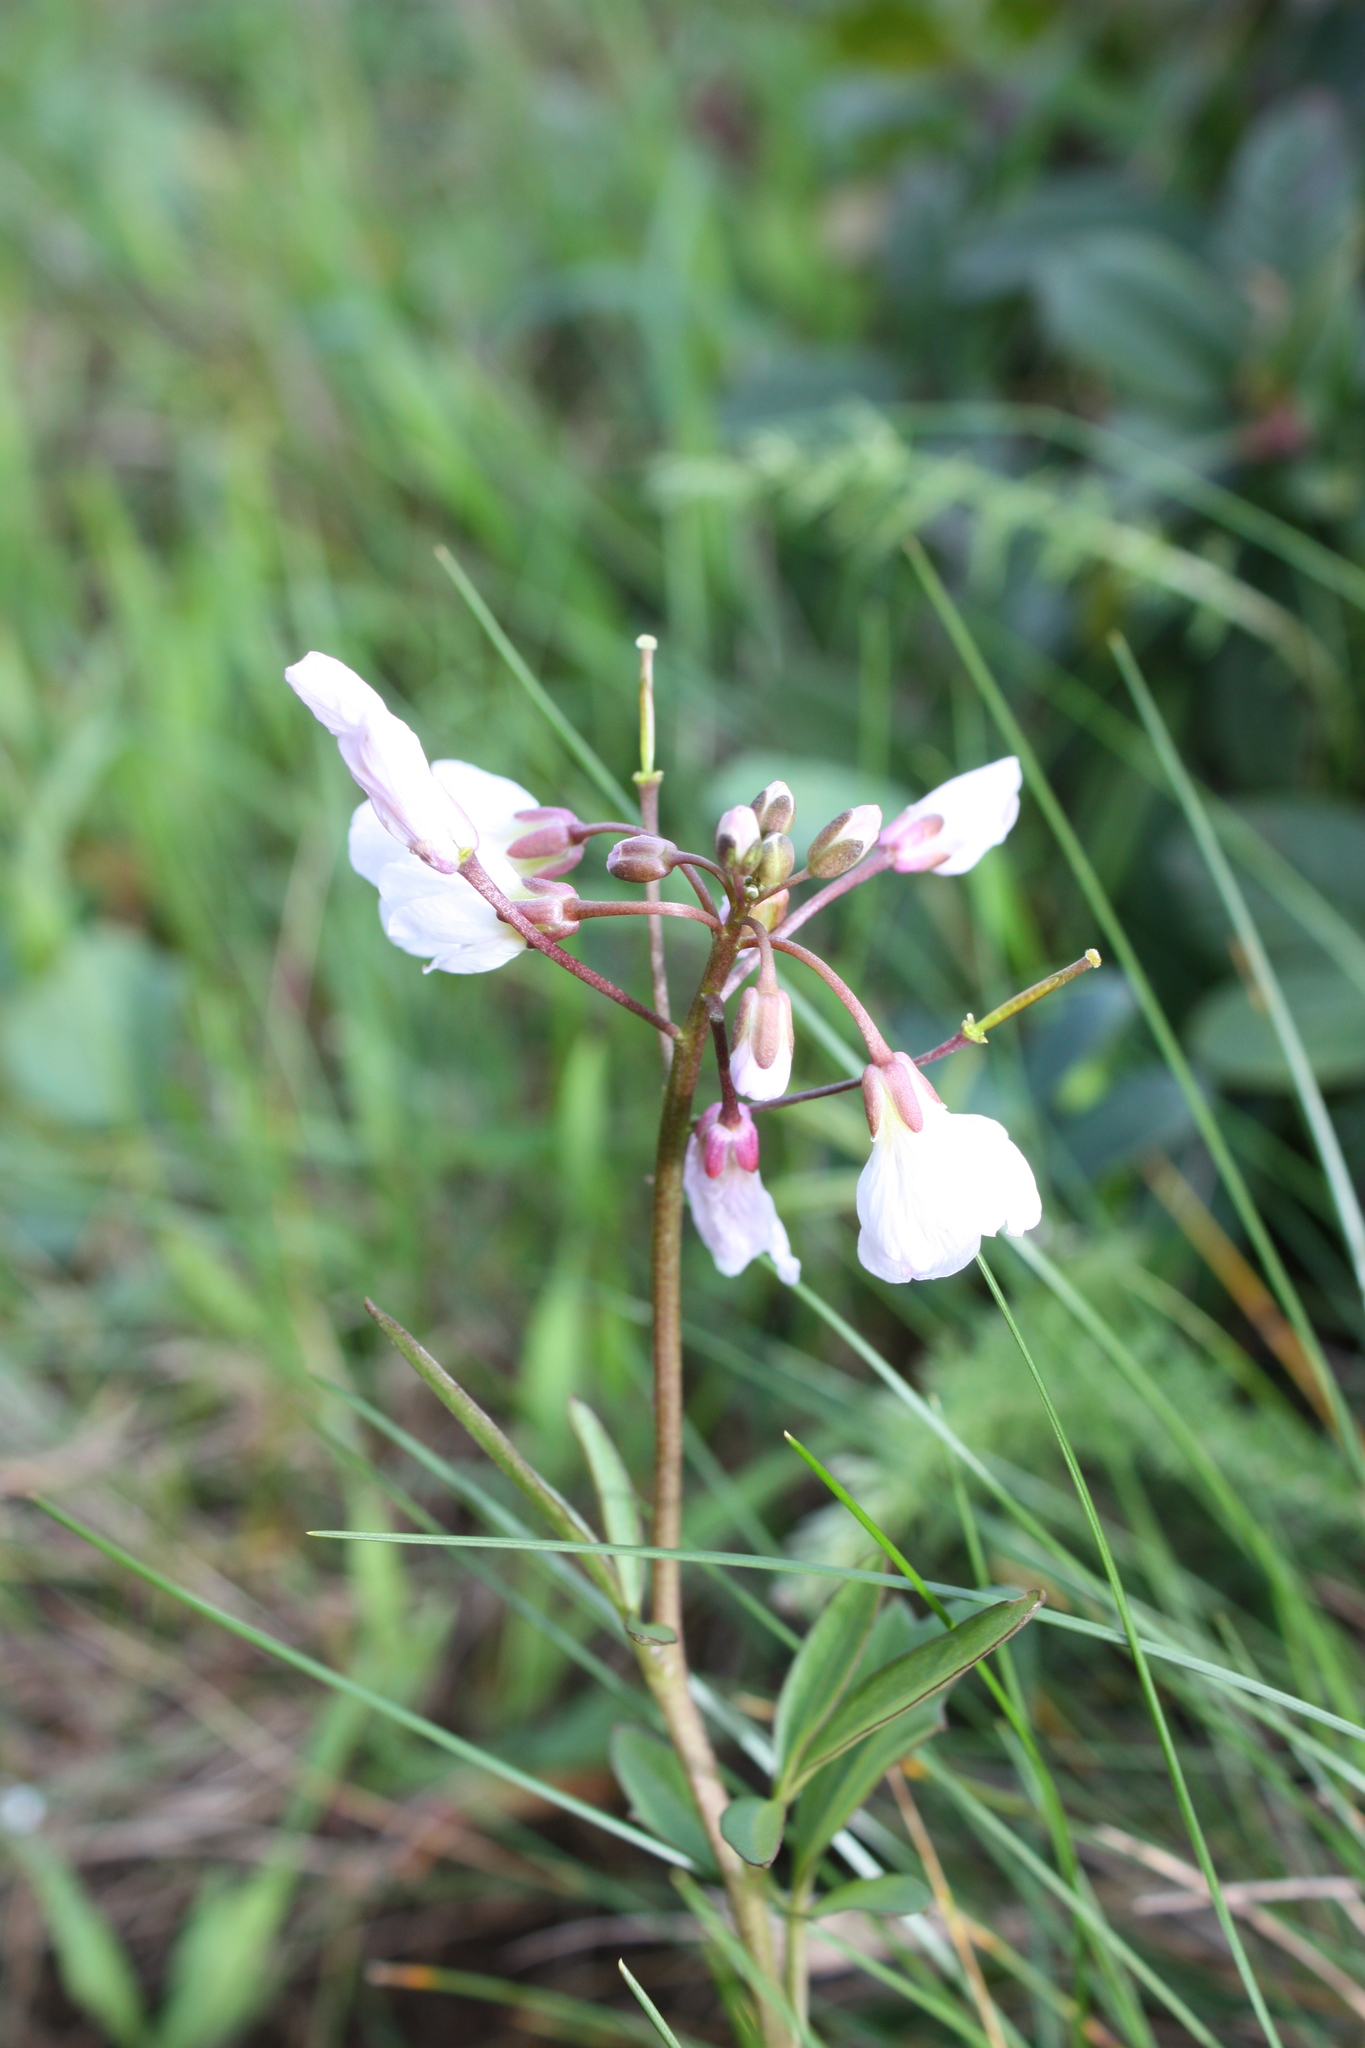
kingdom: Plantae
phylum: Tracheophyta
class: Magnoliopsida
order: Brassicales
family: Brassicaceae
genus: Cardamine
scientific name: Cardamine californica
